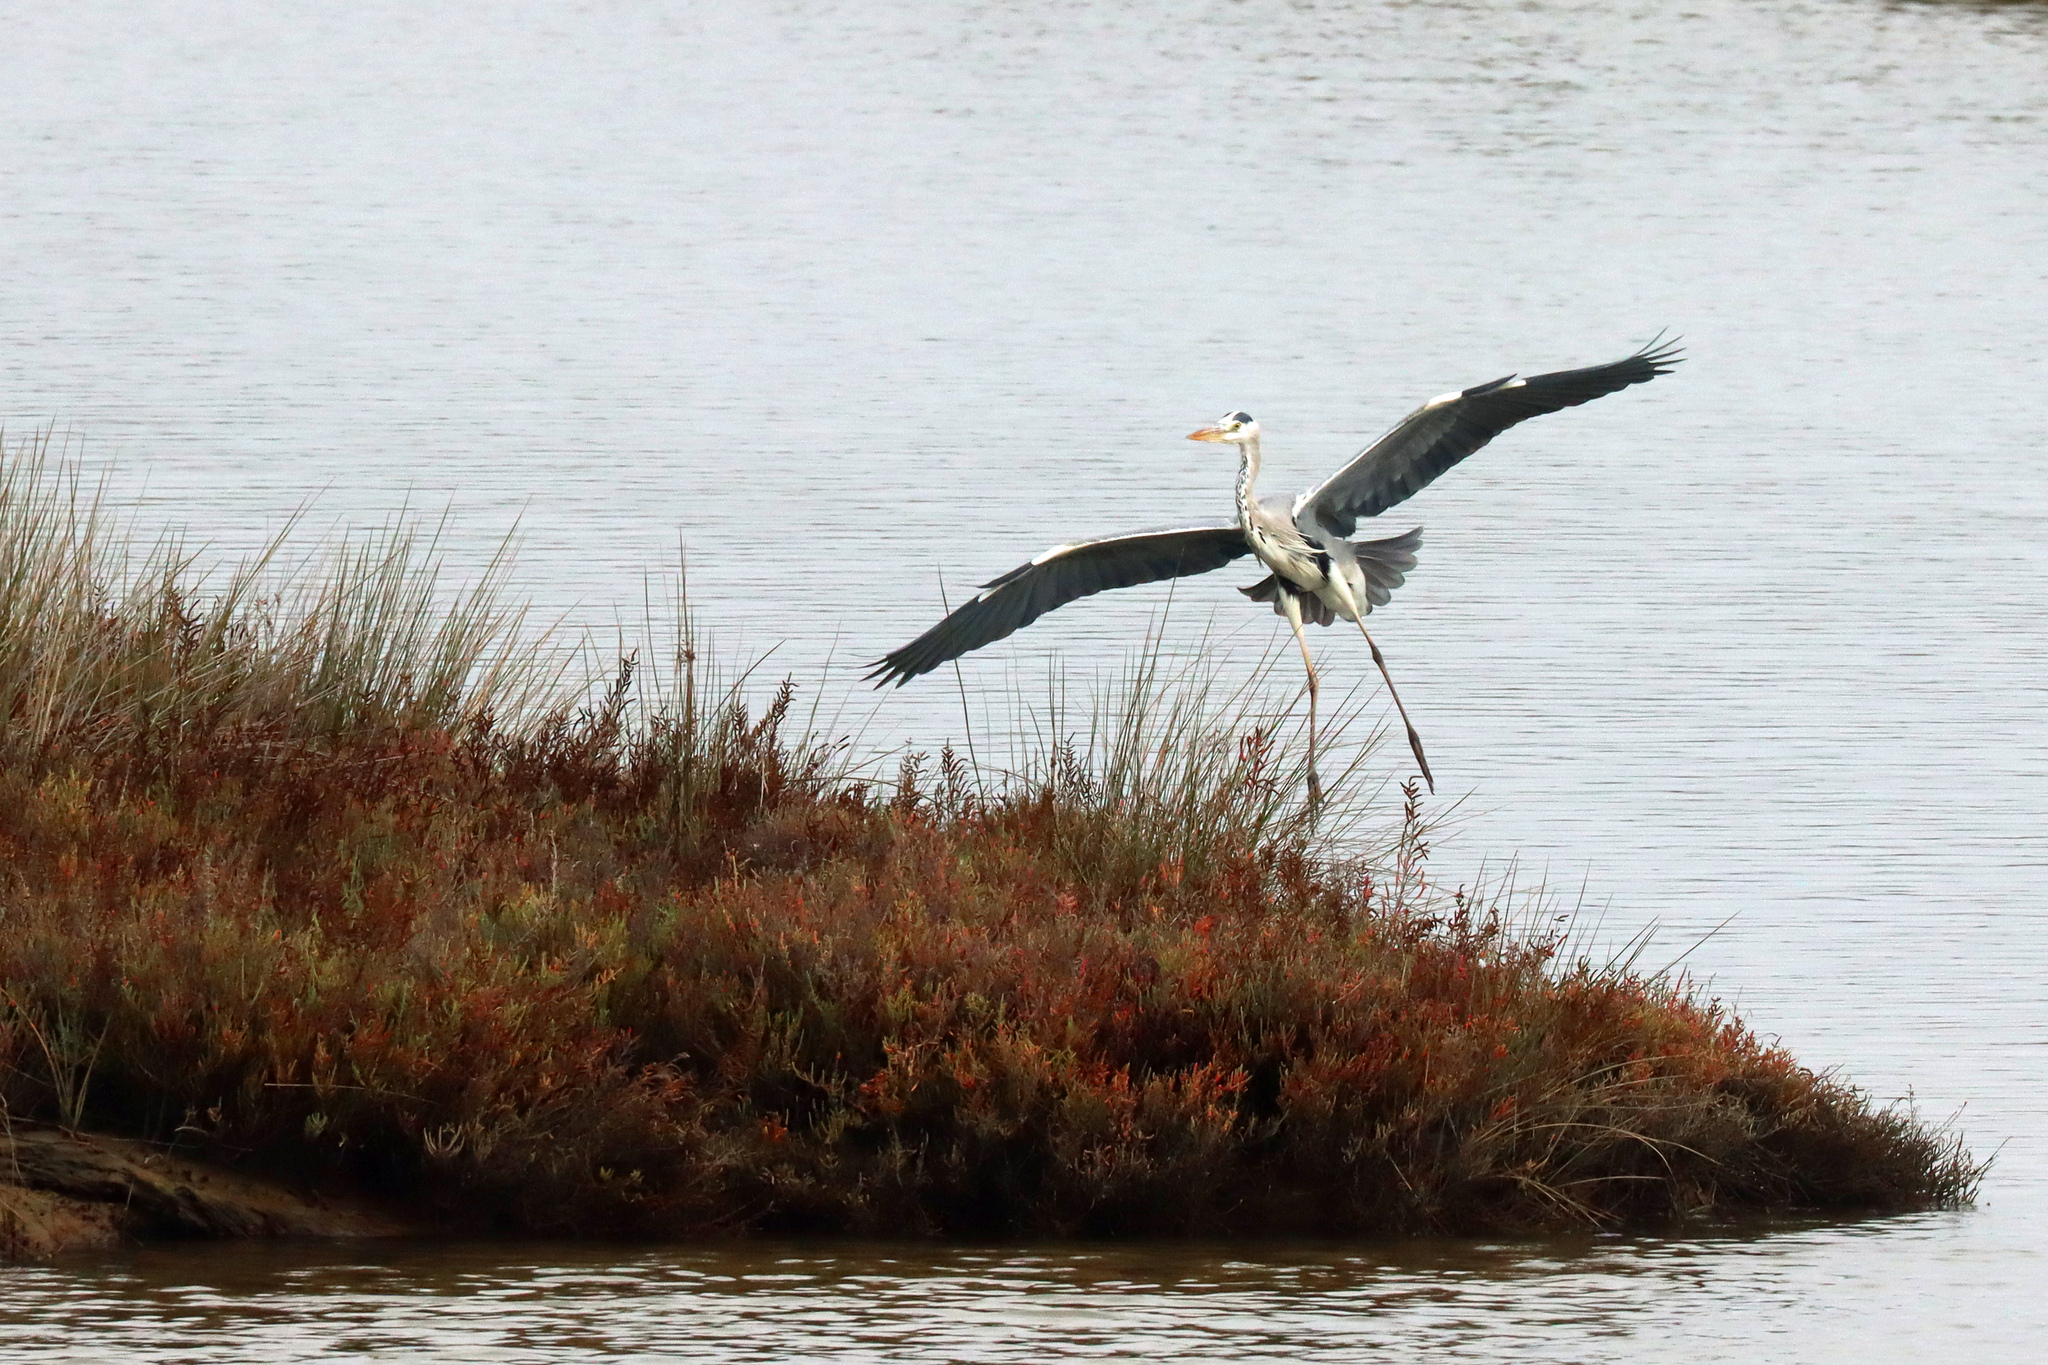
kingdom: Animalia
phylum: Chordata
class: Aves
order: Pelecaniformes
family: Ardeidae
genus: Ardea
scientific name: Ardea cinerea
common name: Grey heron
